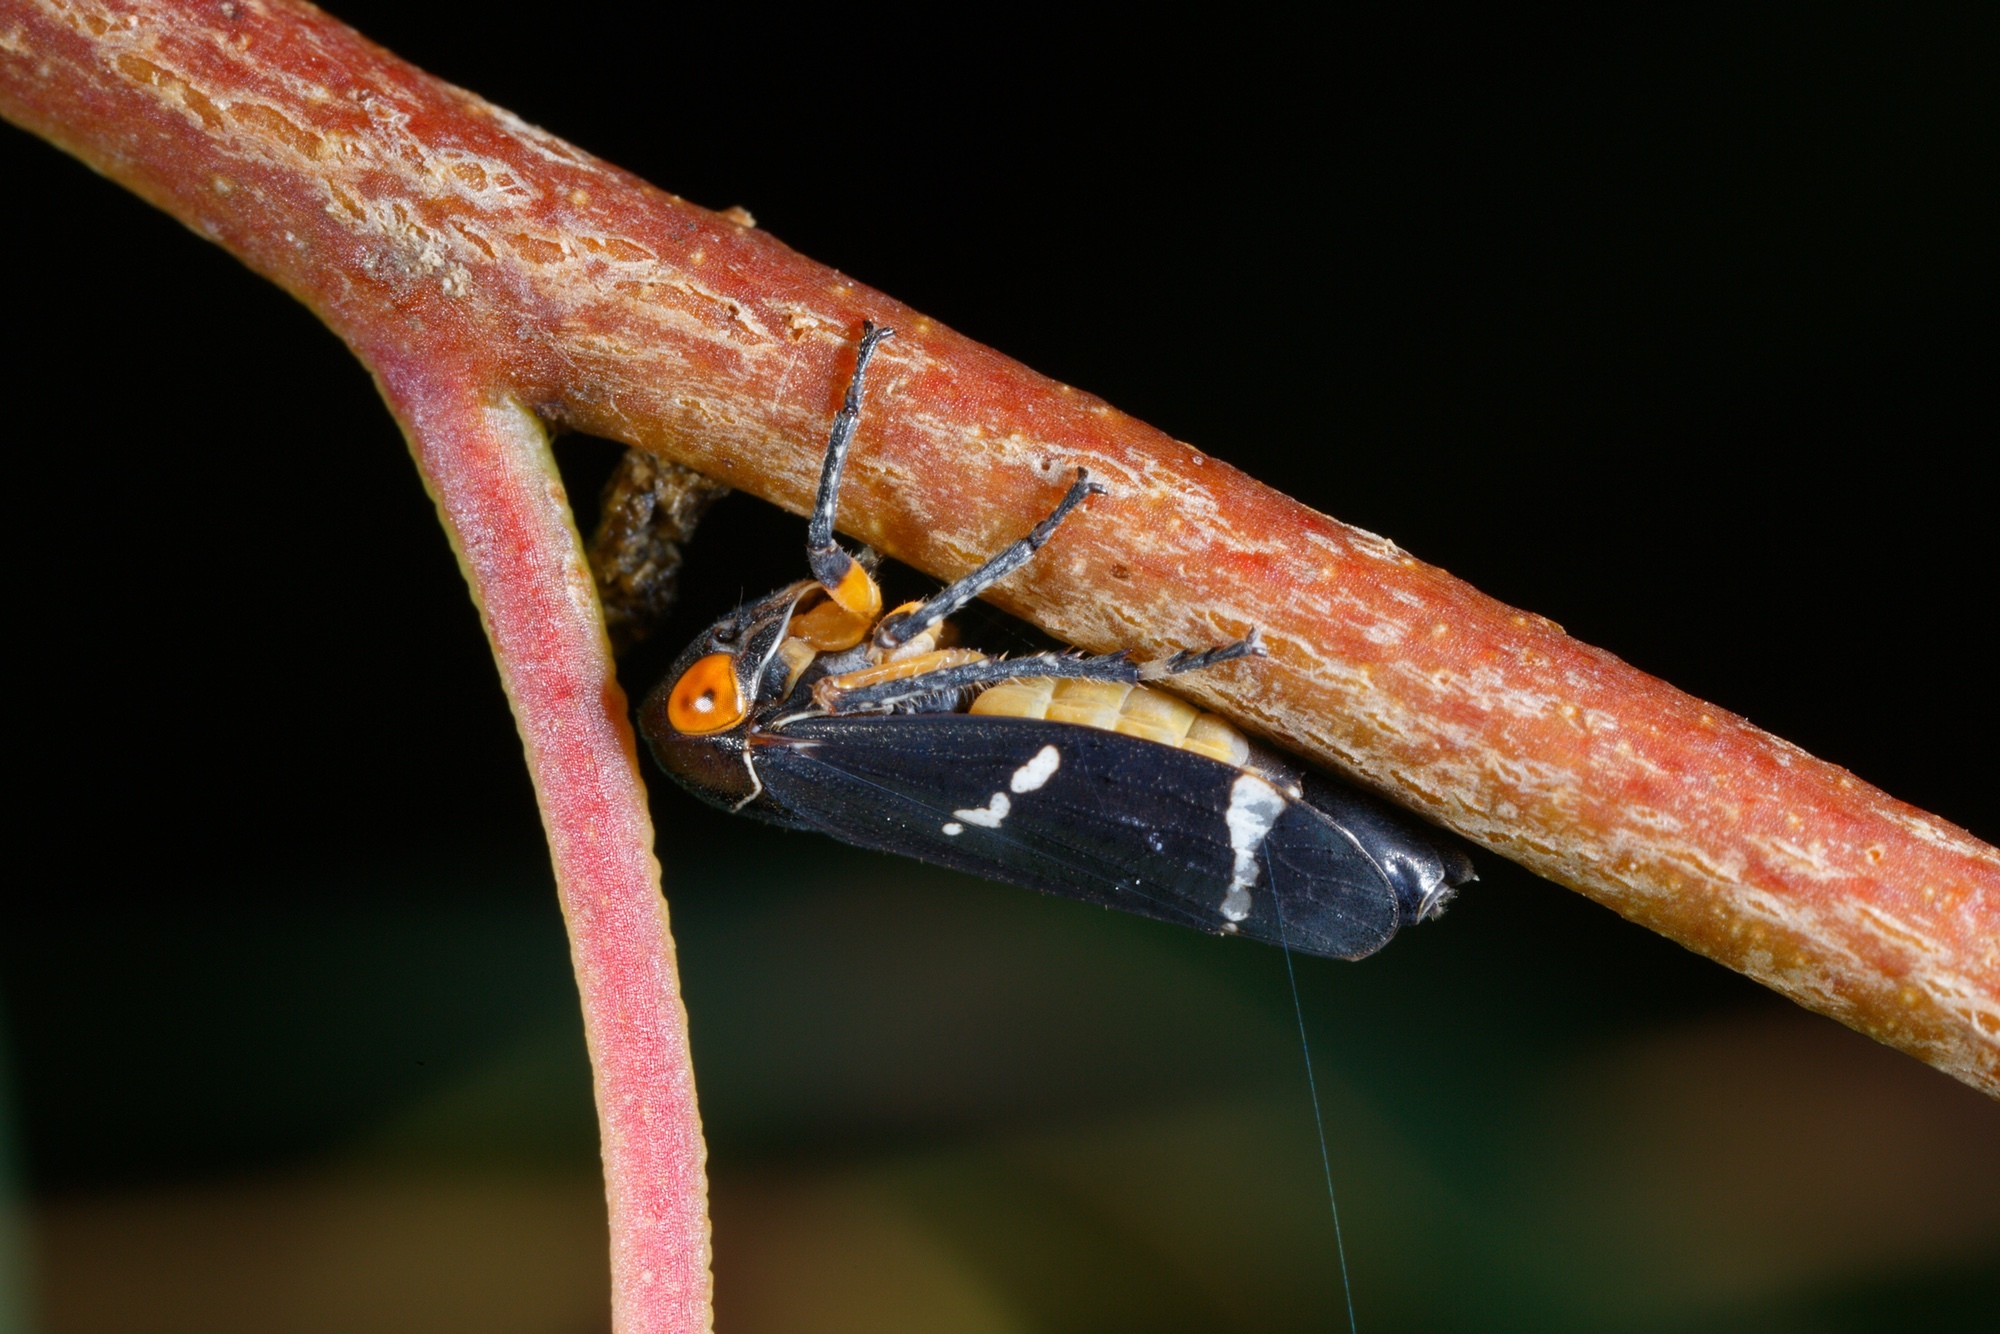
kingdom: Animalia
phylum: Arthropoda
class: Insecta
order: Hemiptera
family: Cicadellidae
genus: Eurymeloides
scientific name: Eurymeloides bicincta
